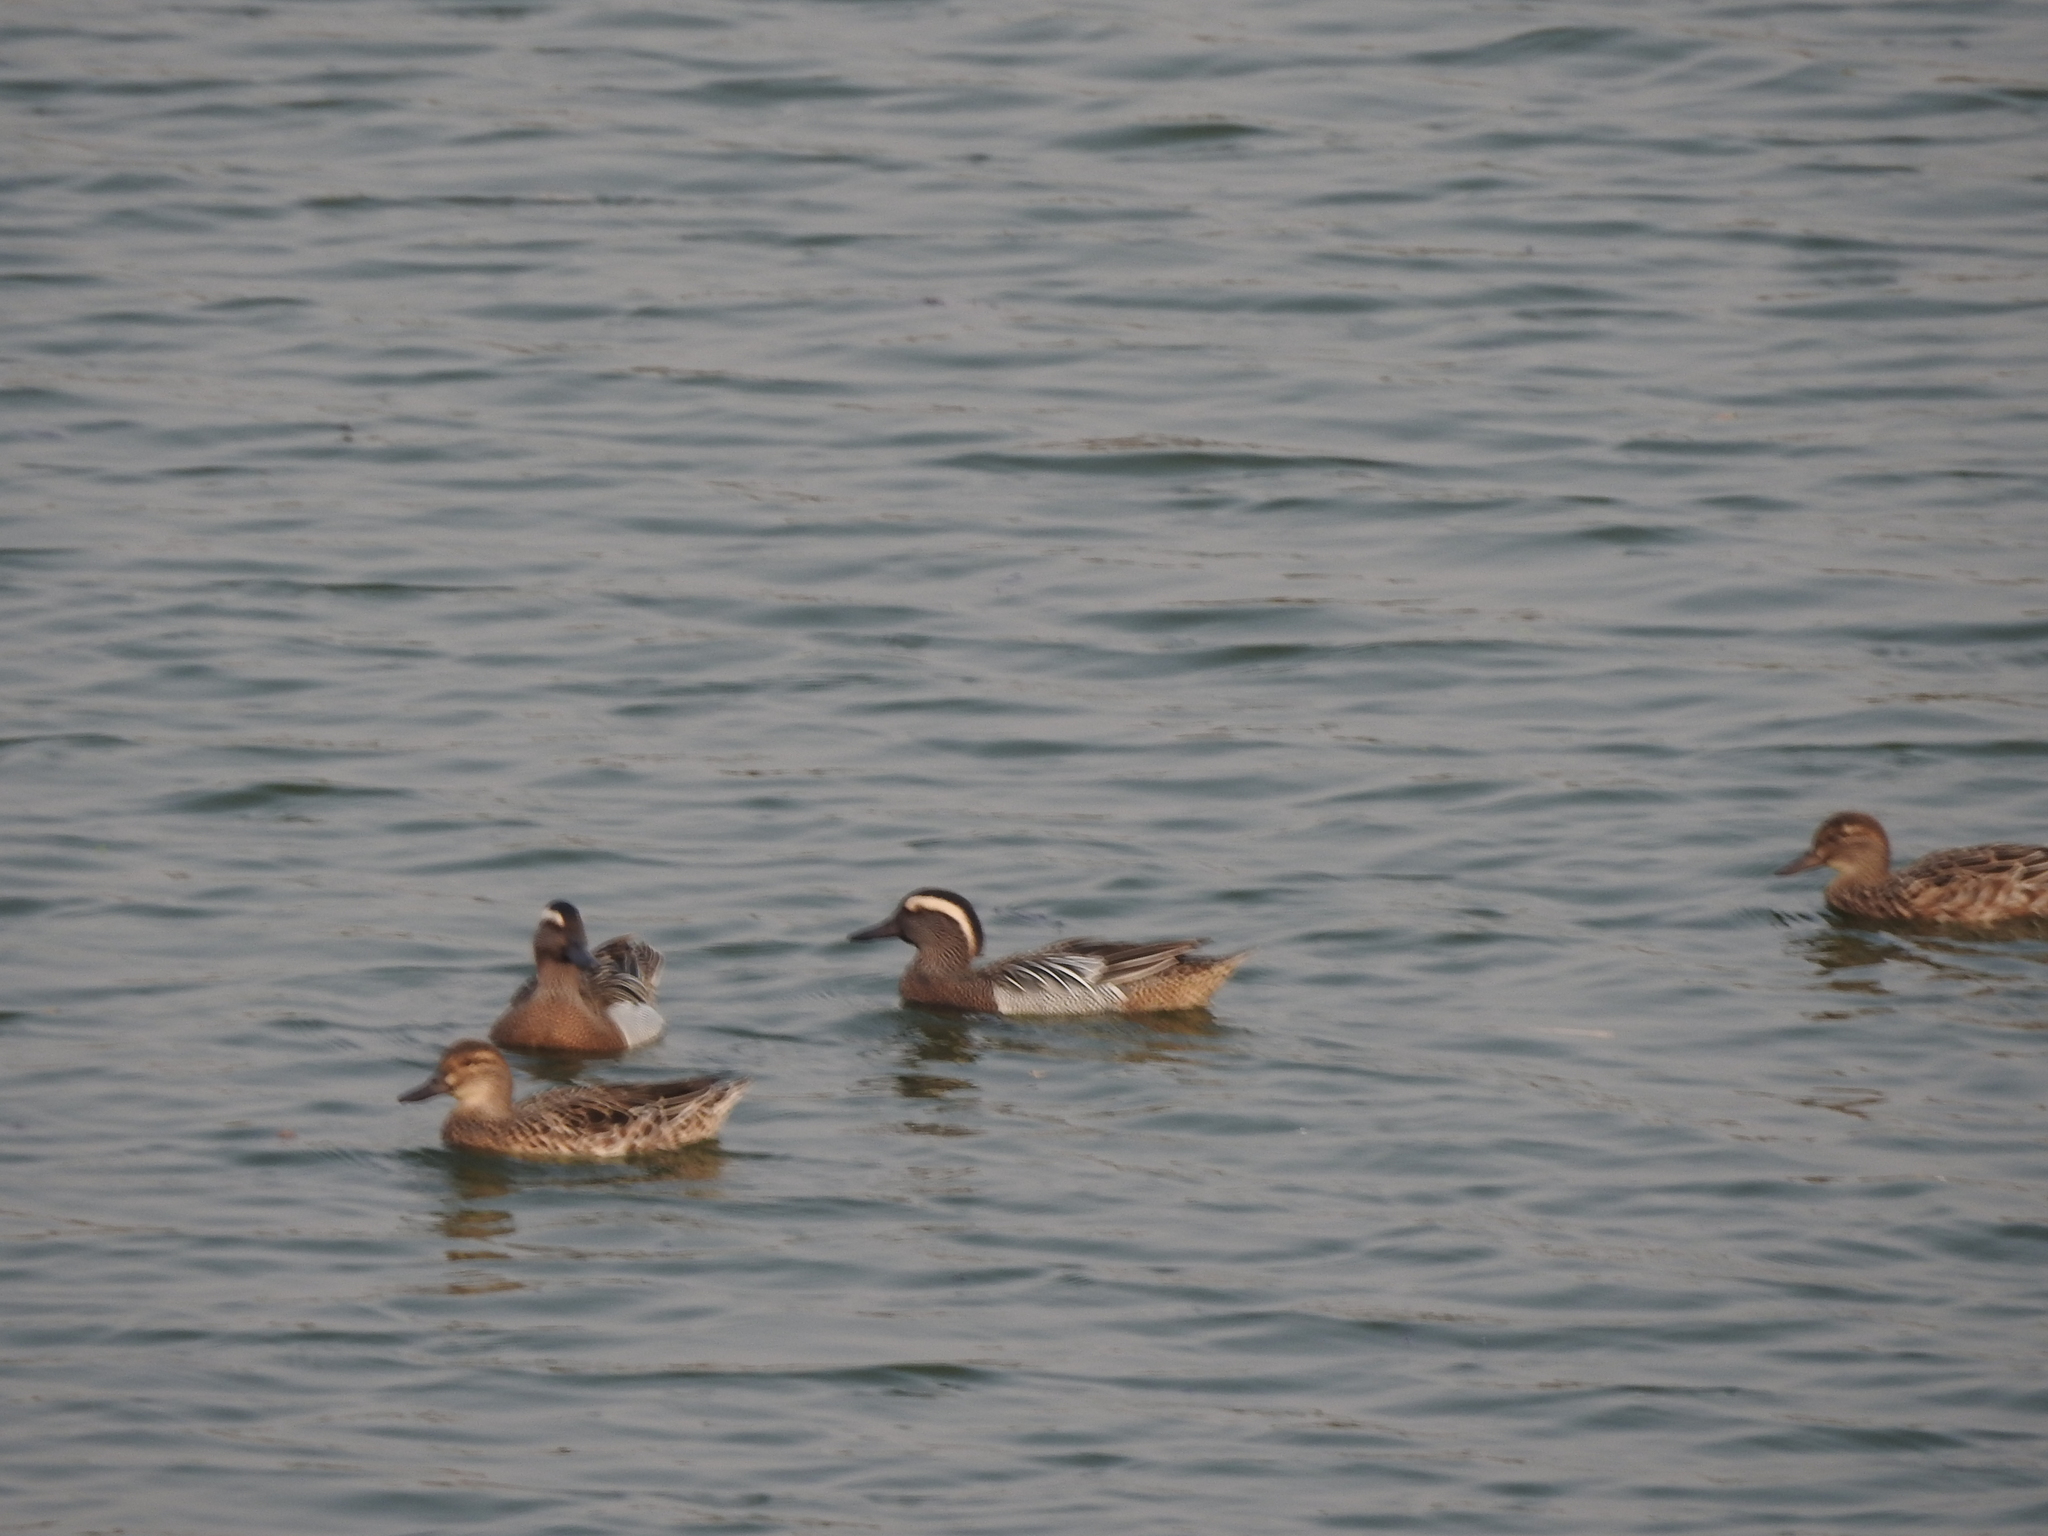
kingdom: Animalia
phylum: Chordata
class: Aves
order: Anseriformes
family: Anatidae
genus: Spatula
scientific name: Spatula querquedula
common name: Garganey
